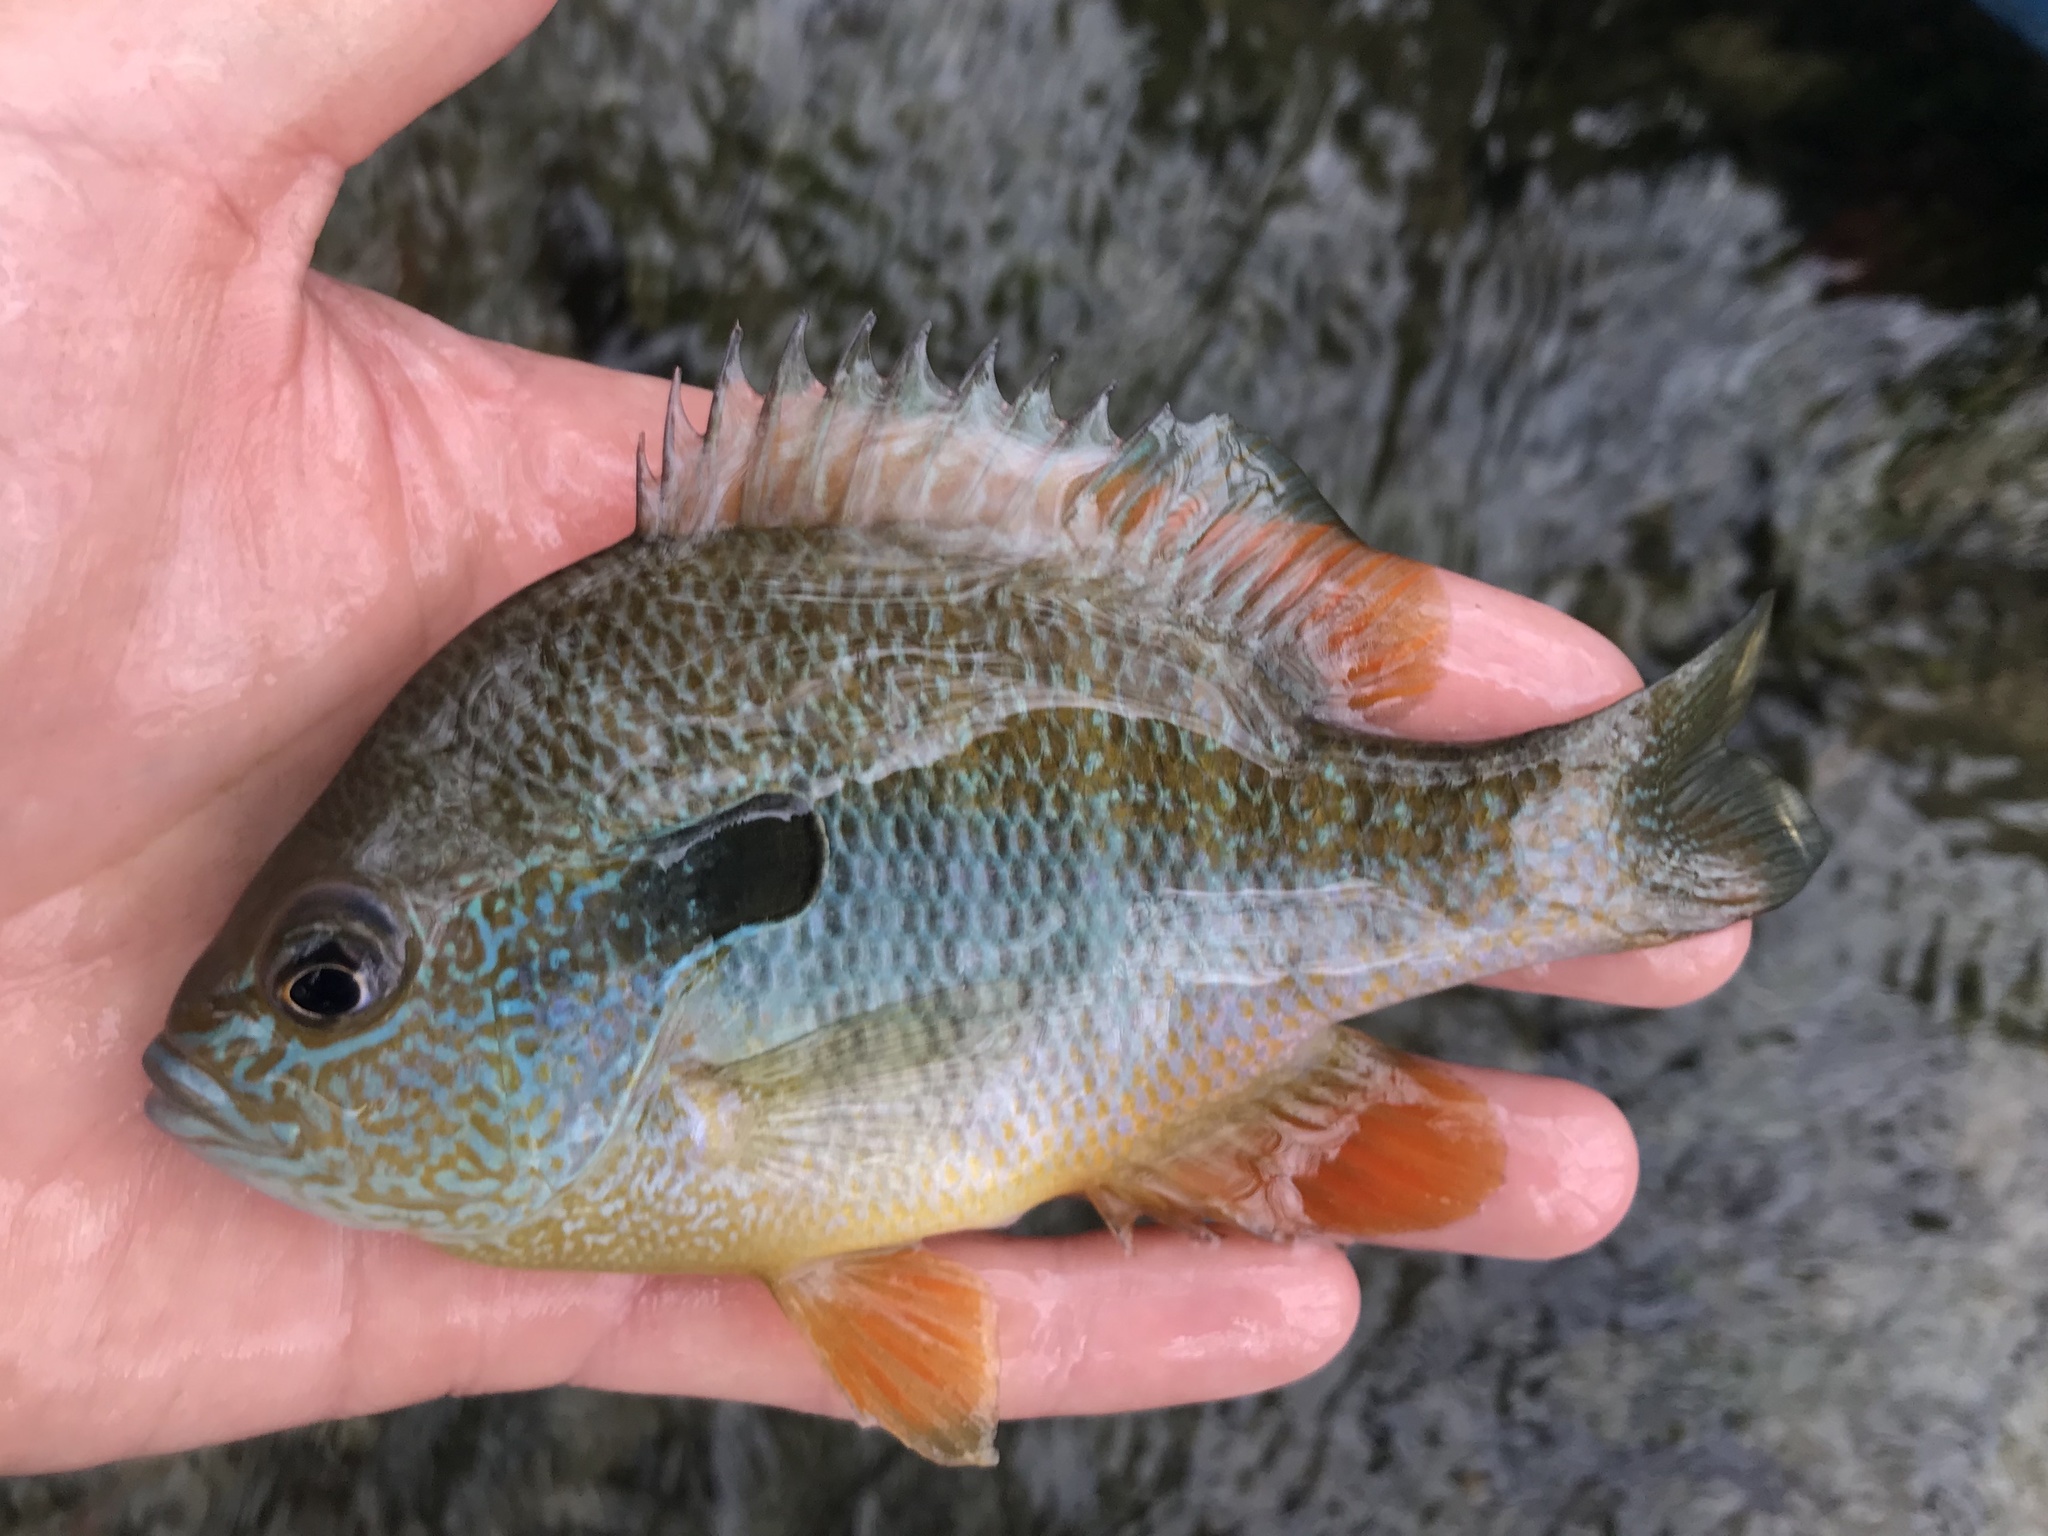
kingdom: Animalia
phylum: Chordata
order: Perciformes
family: Centrarchidae
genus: Lepomis
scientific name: Lepomis megalotis
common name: Longear sunfish
